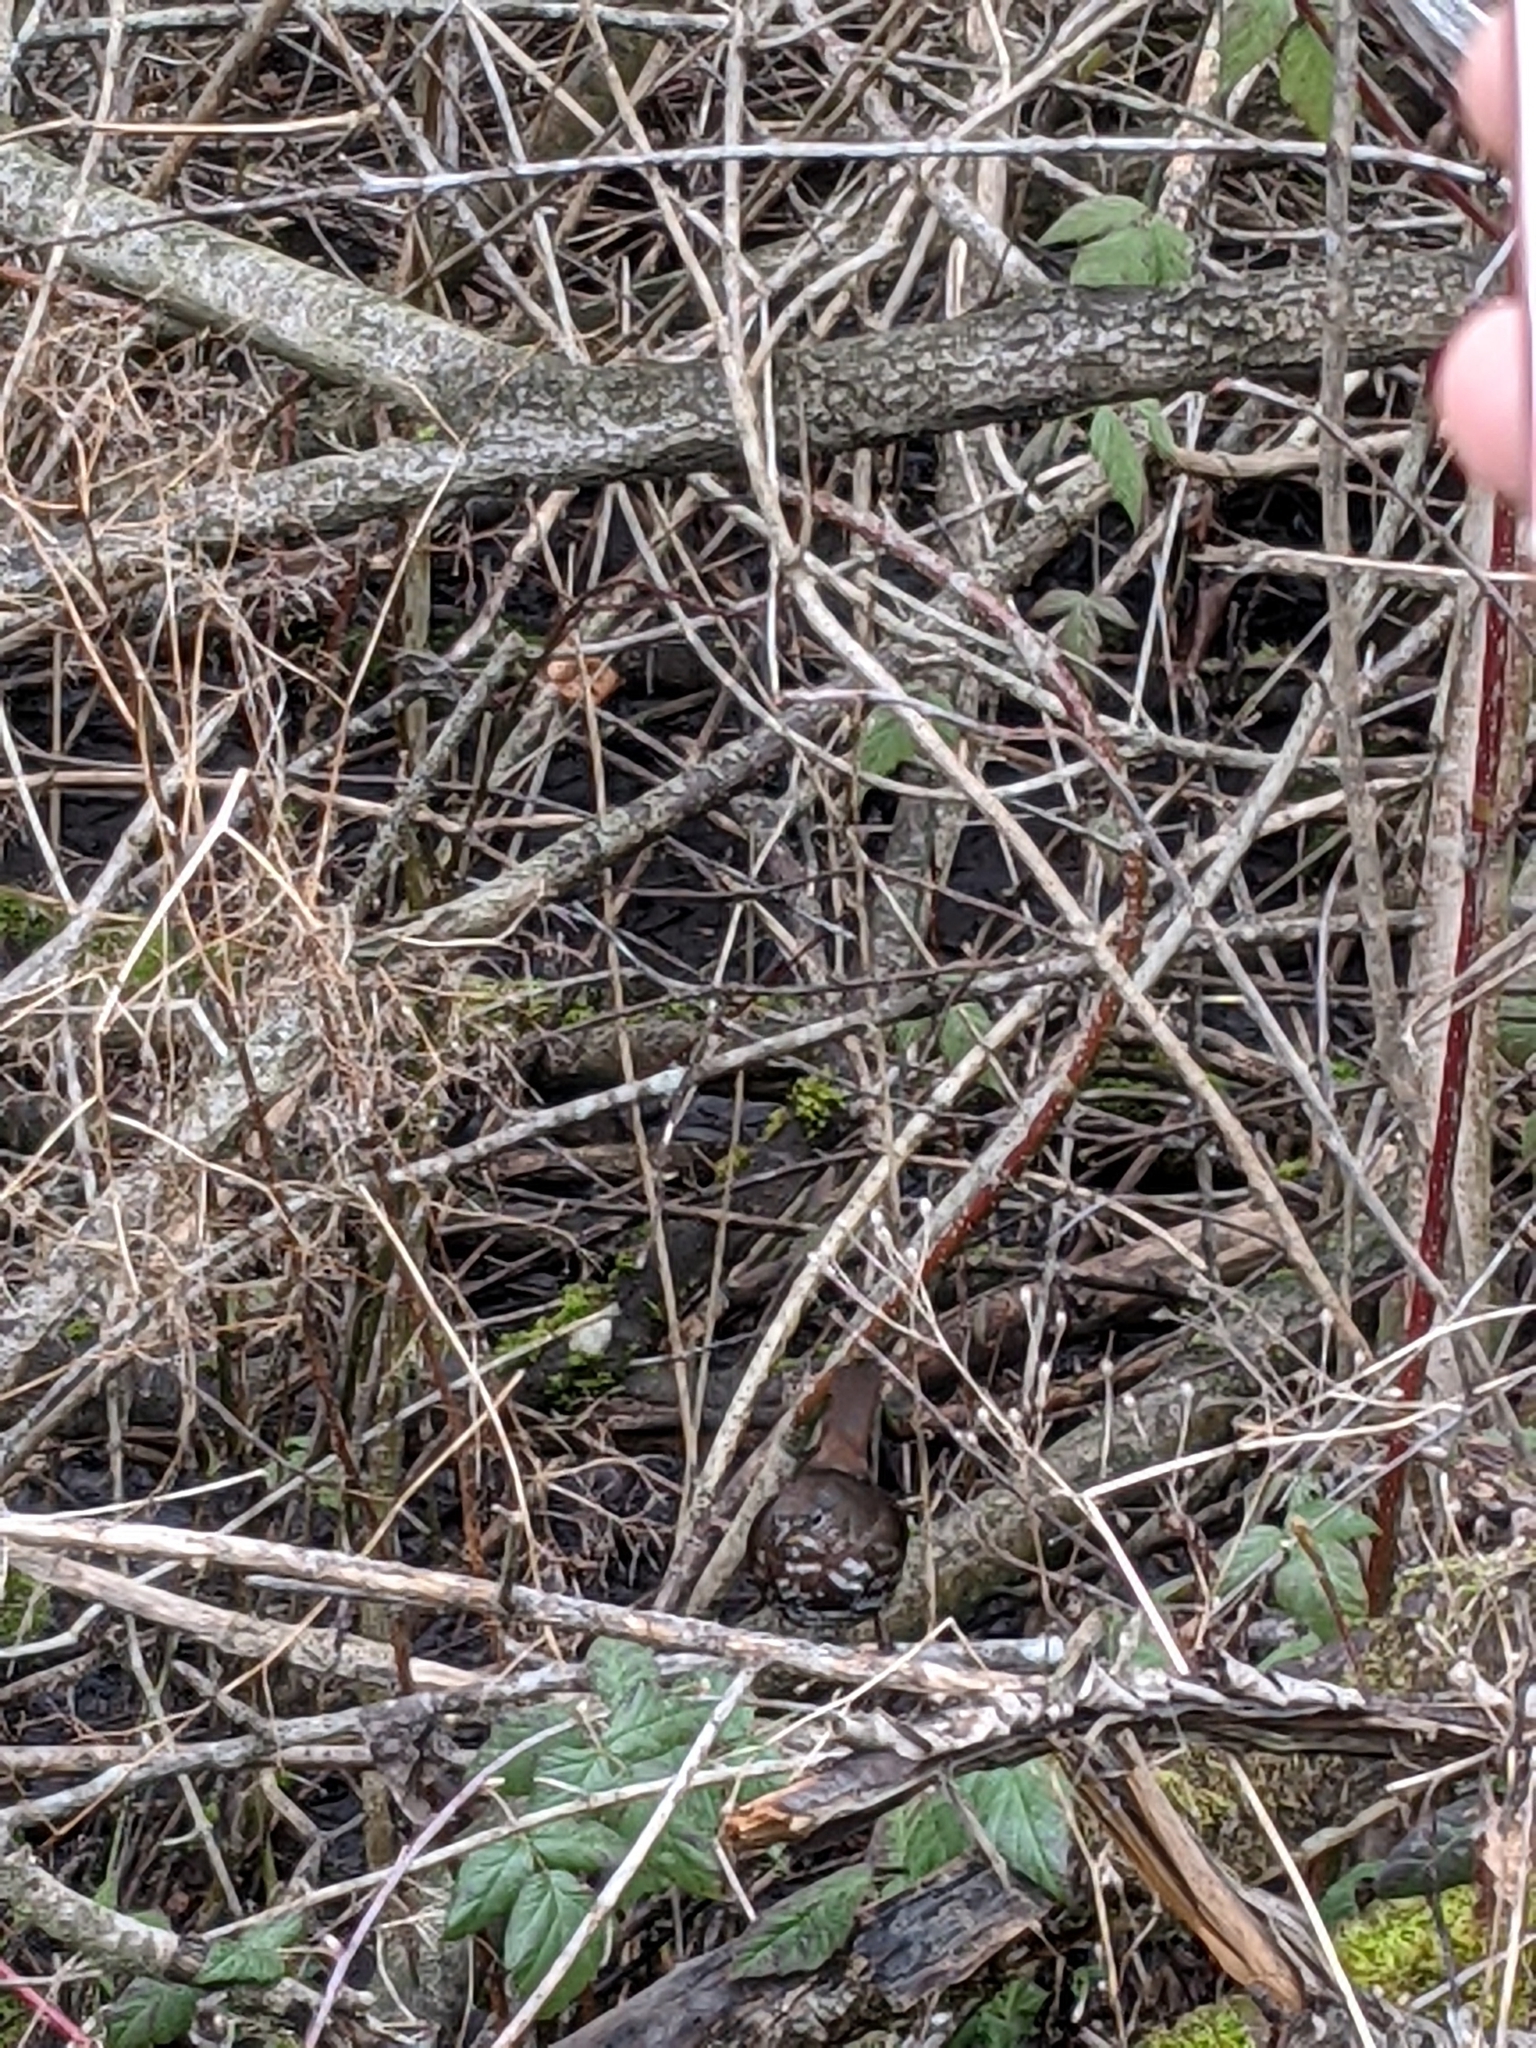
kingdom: Animalia
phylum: Chordata
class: Aves
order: Passeriformes
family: Passerellidae
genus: Passerella
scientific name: Passerella iliaca
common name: Fox sparrow
